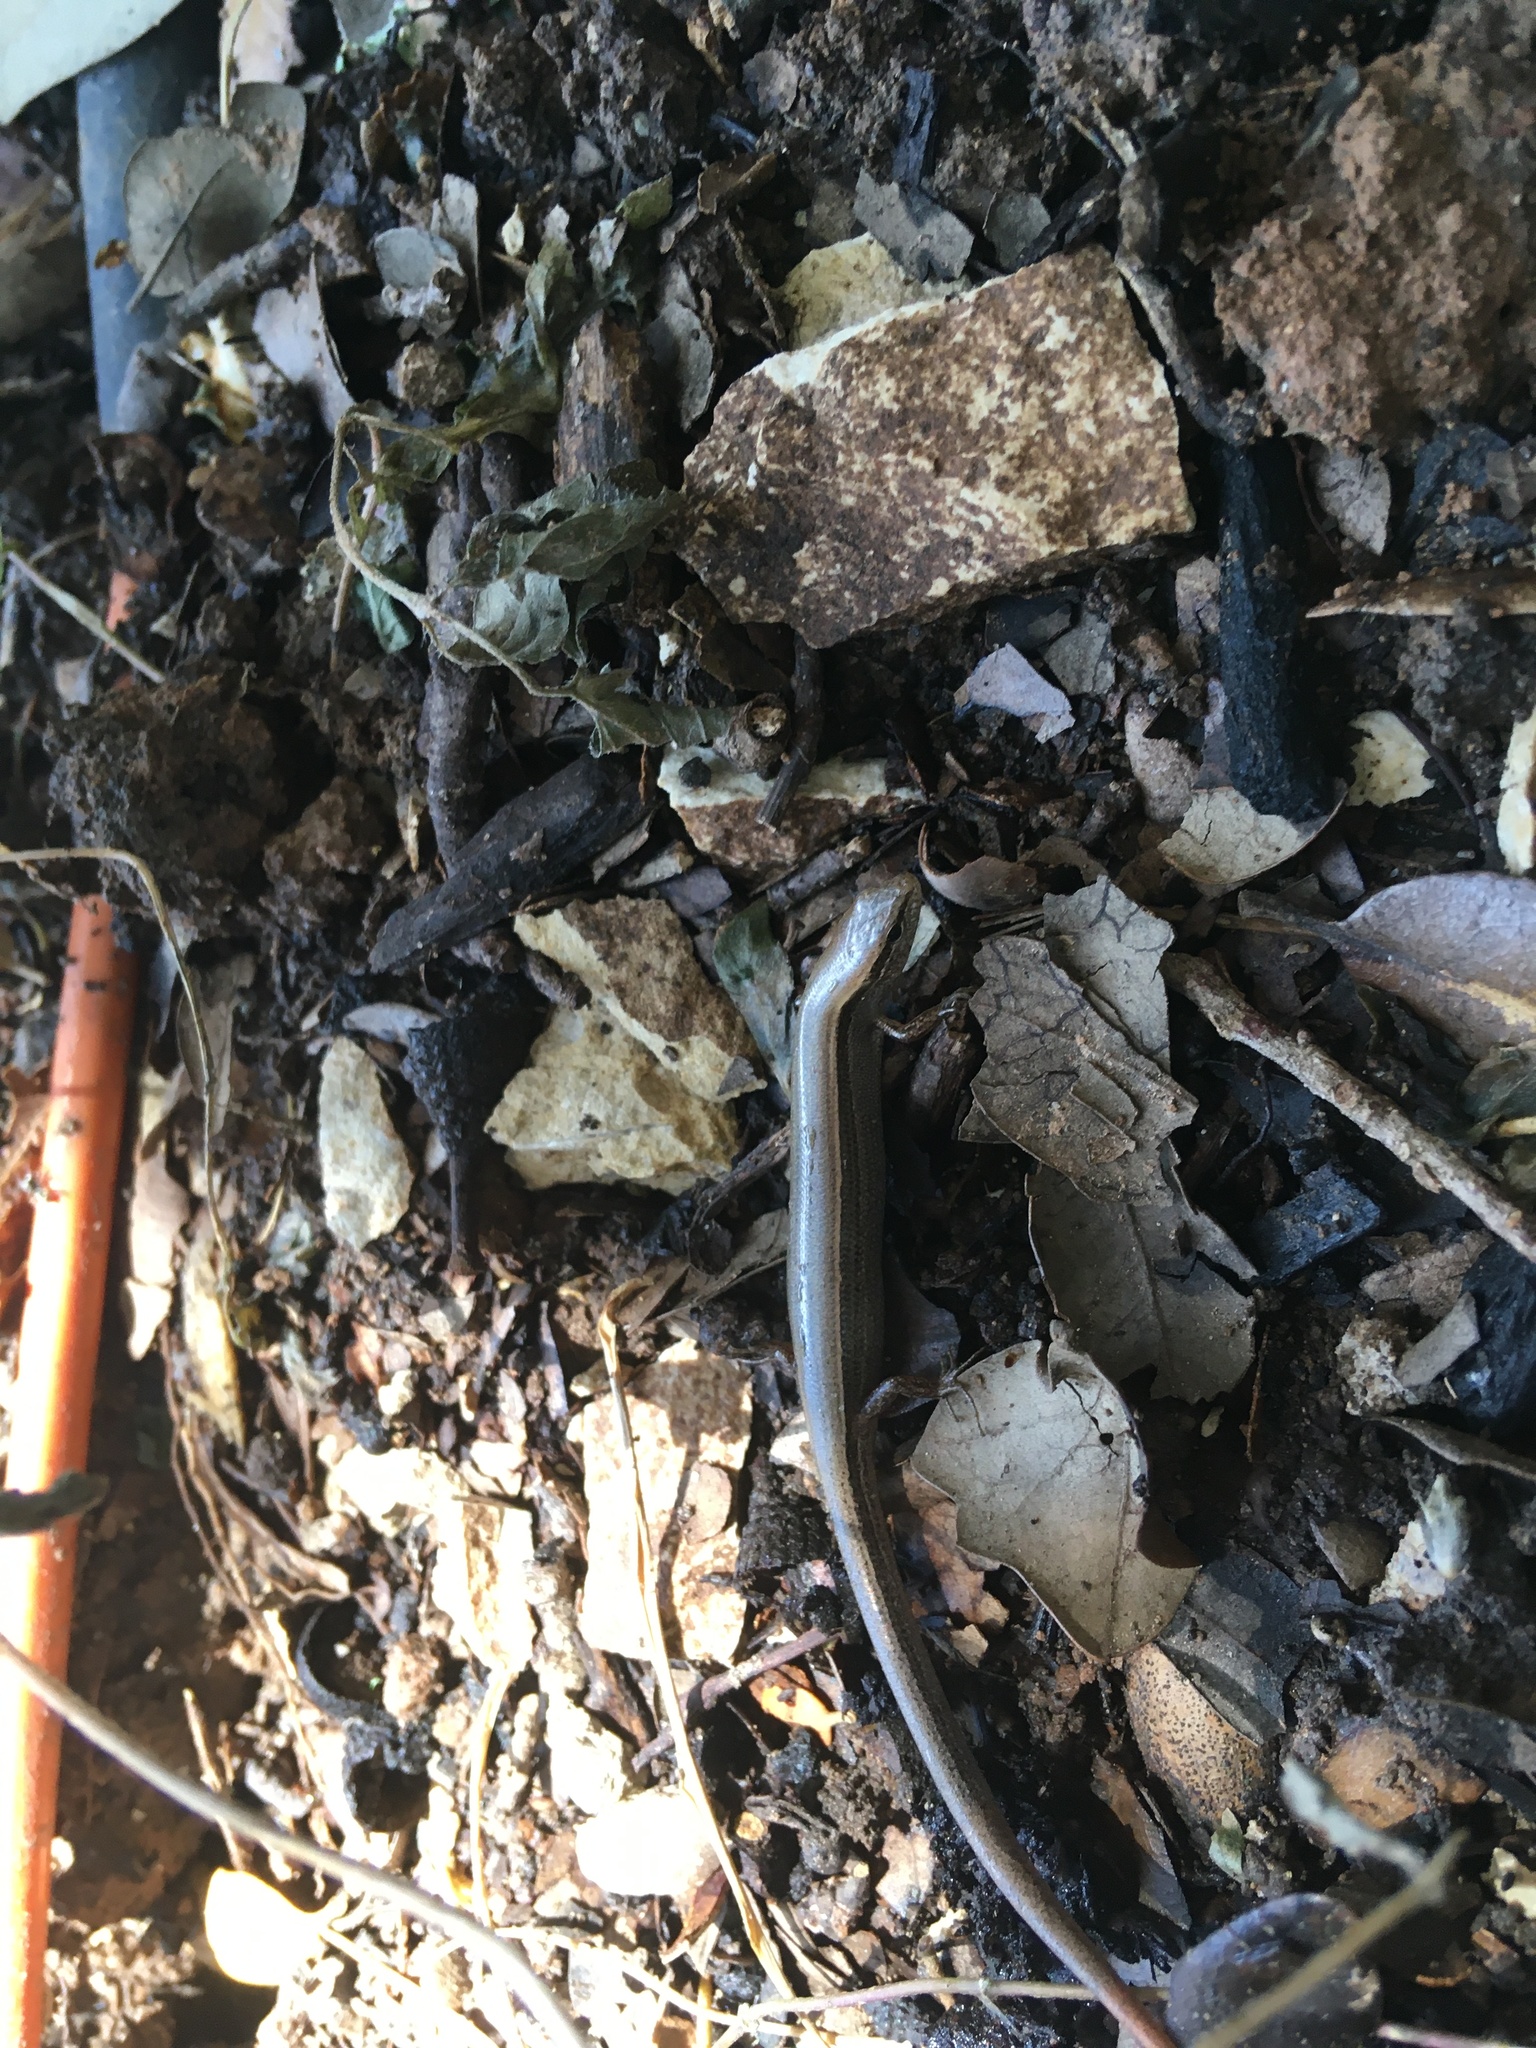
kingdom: Animalia
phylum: Chordata
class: Squamata
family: Scincidae
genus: Scincella
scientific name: Scincella lateralis
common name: Ground skink
